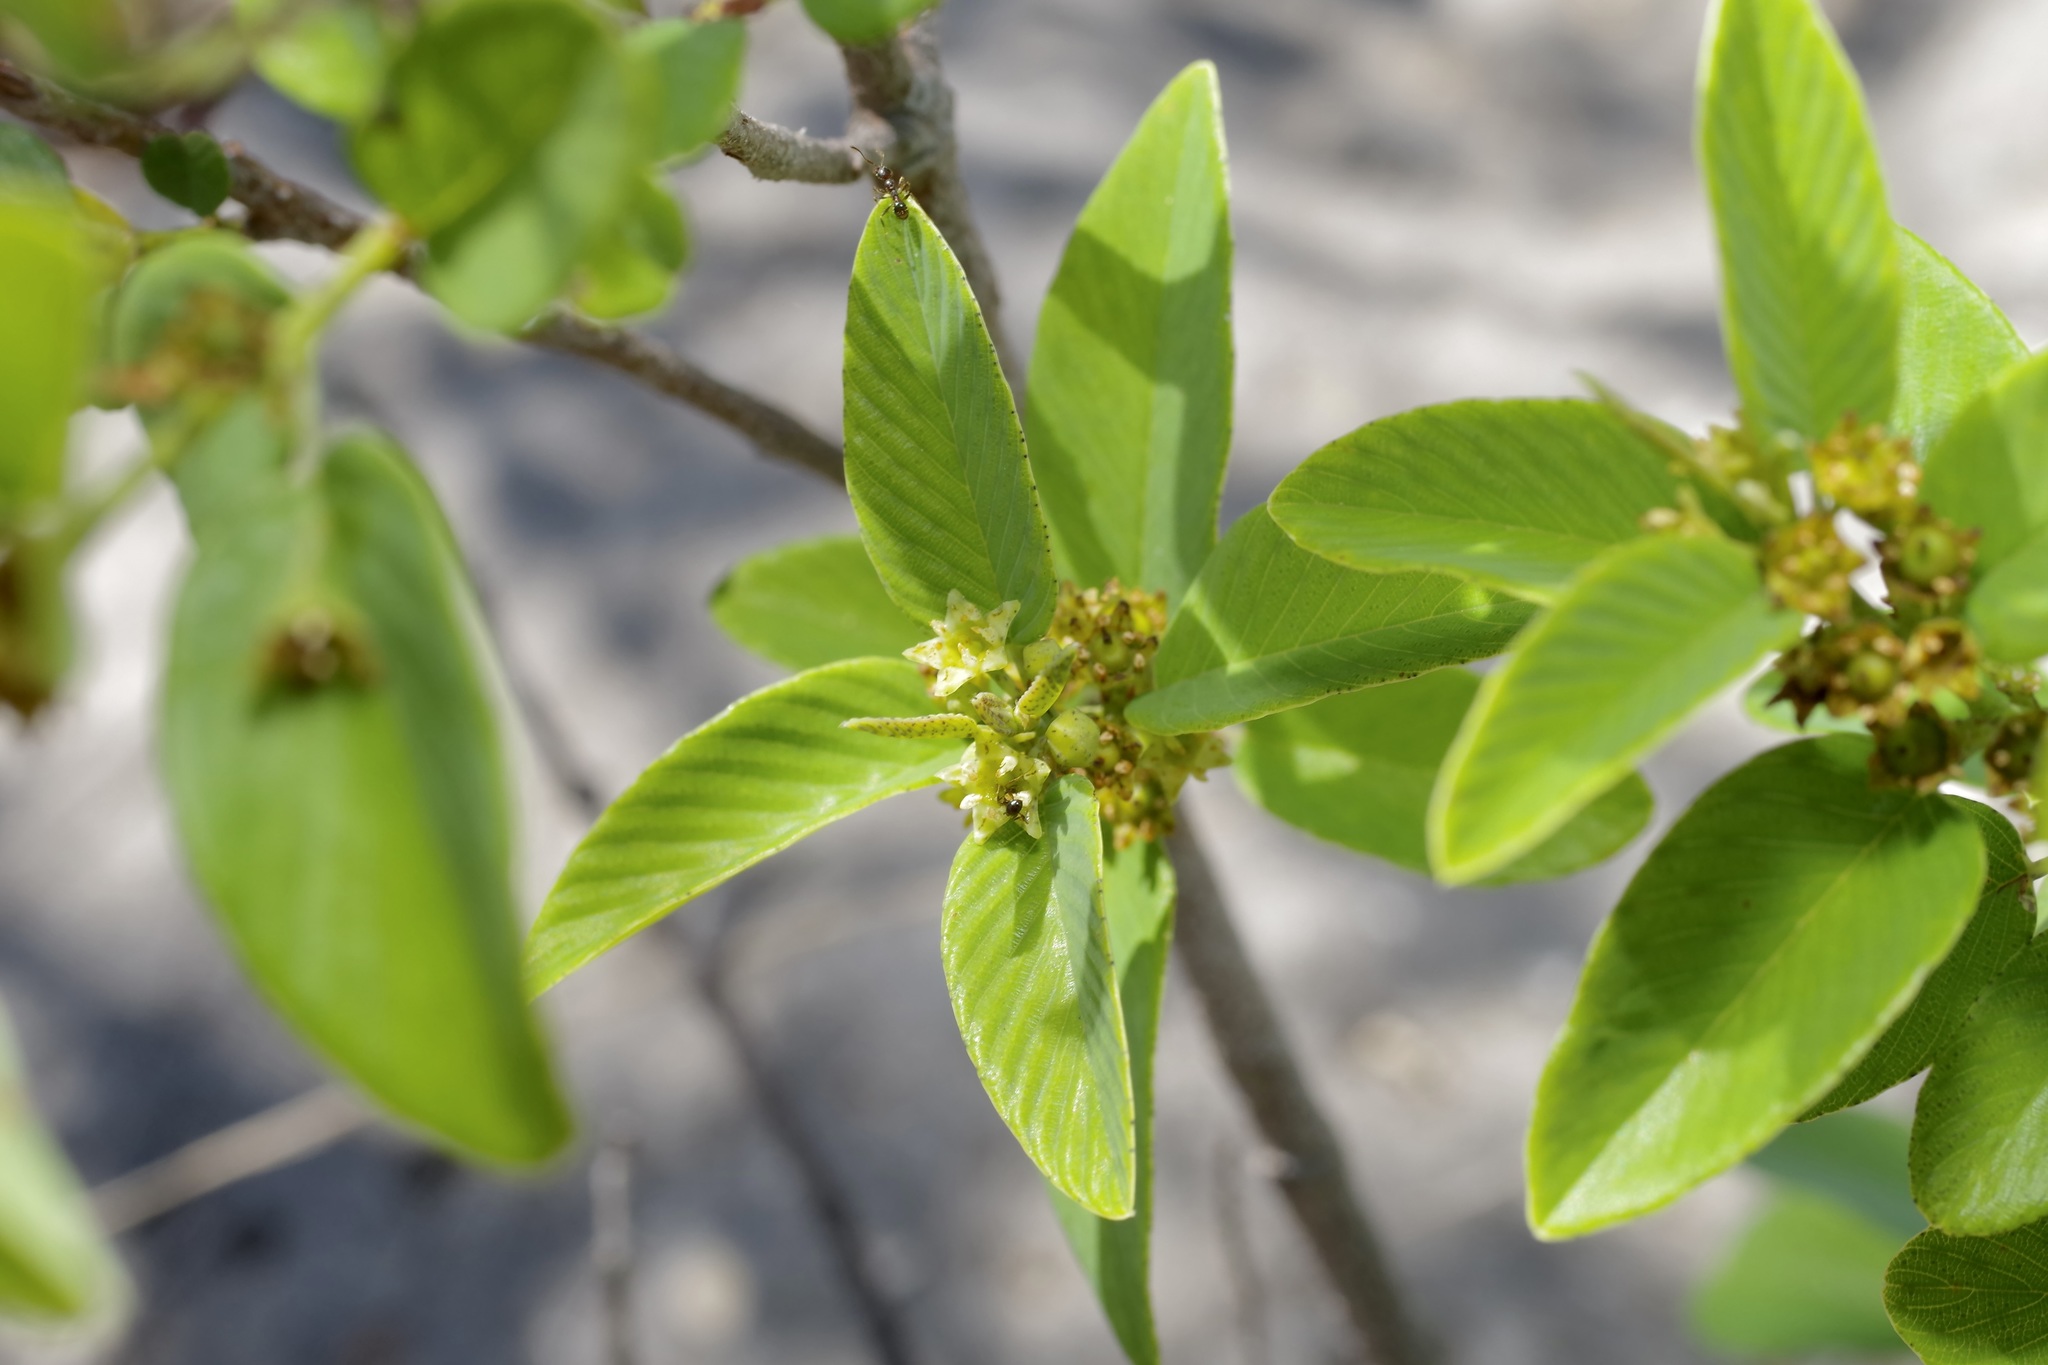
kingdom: Plantae
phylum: Tracheophyta
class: Magnoliopsida
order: Rosales
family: Rhamnaceae
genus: Karwinskia
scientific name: Karwinskia humboldtiana
